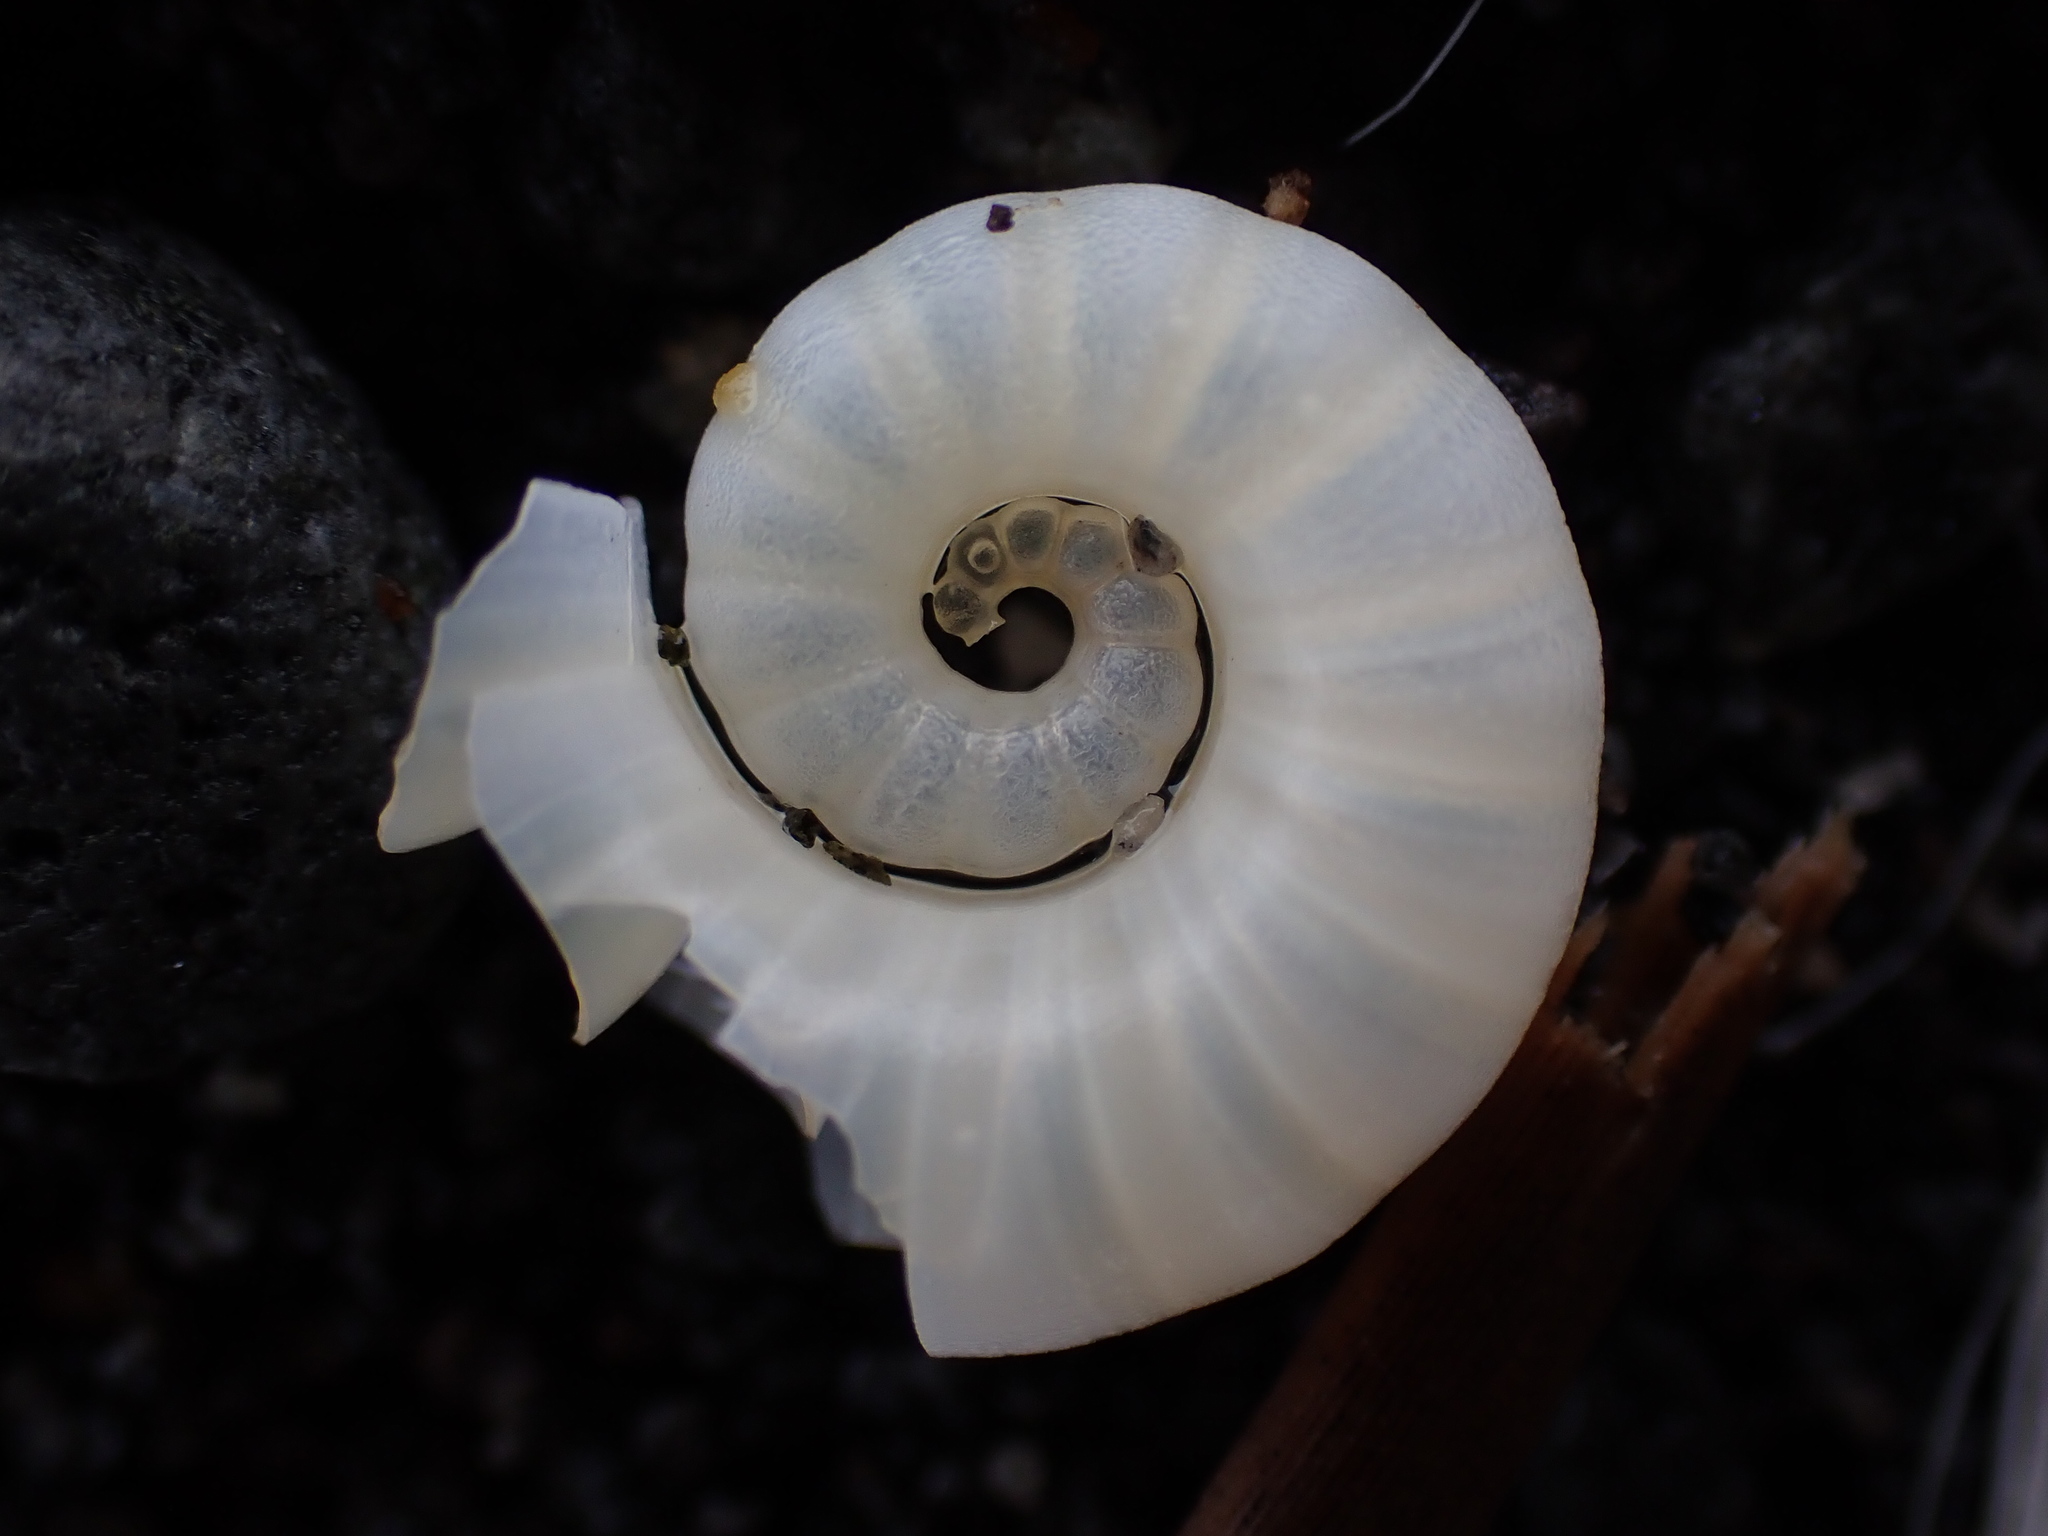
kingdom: Animalia
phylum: Mollusca
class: Cephalopoda
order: Spirulida
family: Spirulidae
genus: Spirula
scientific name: Spirula spirula
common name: Ram's horn squid
